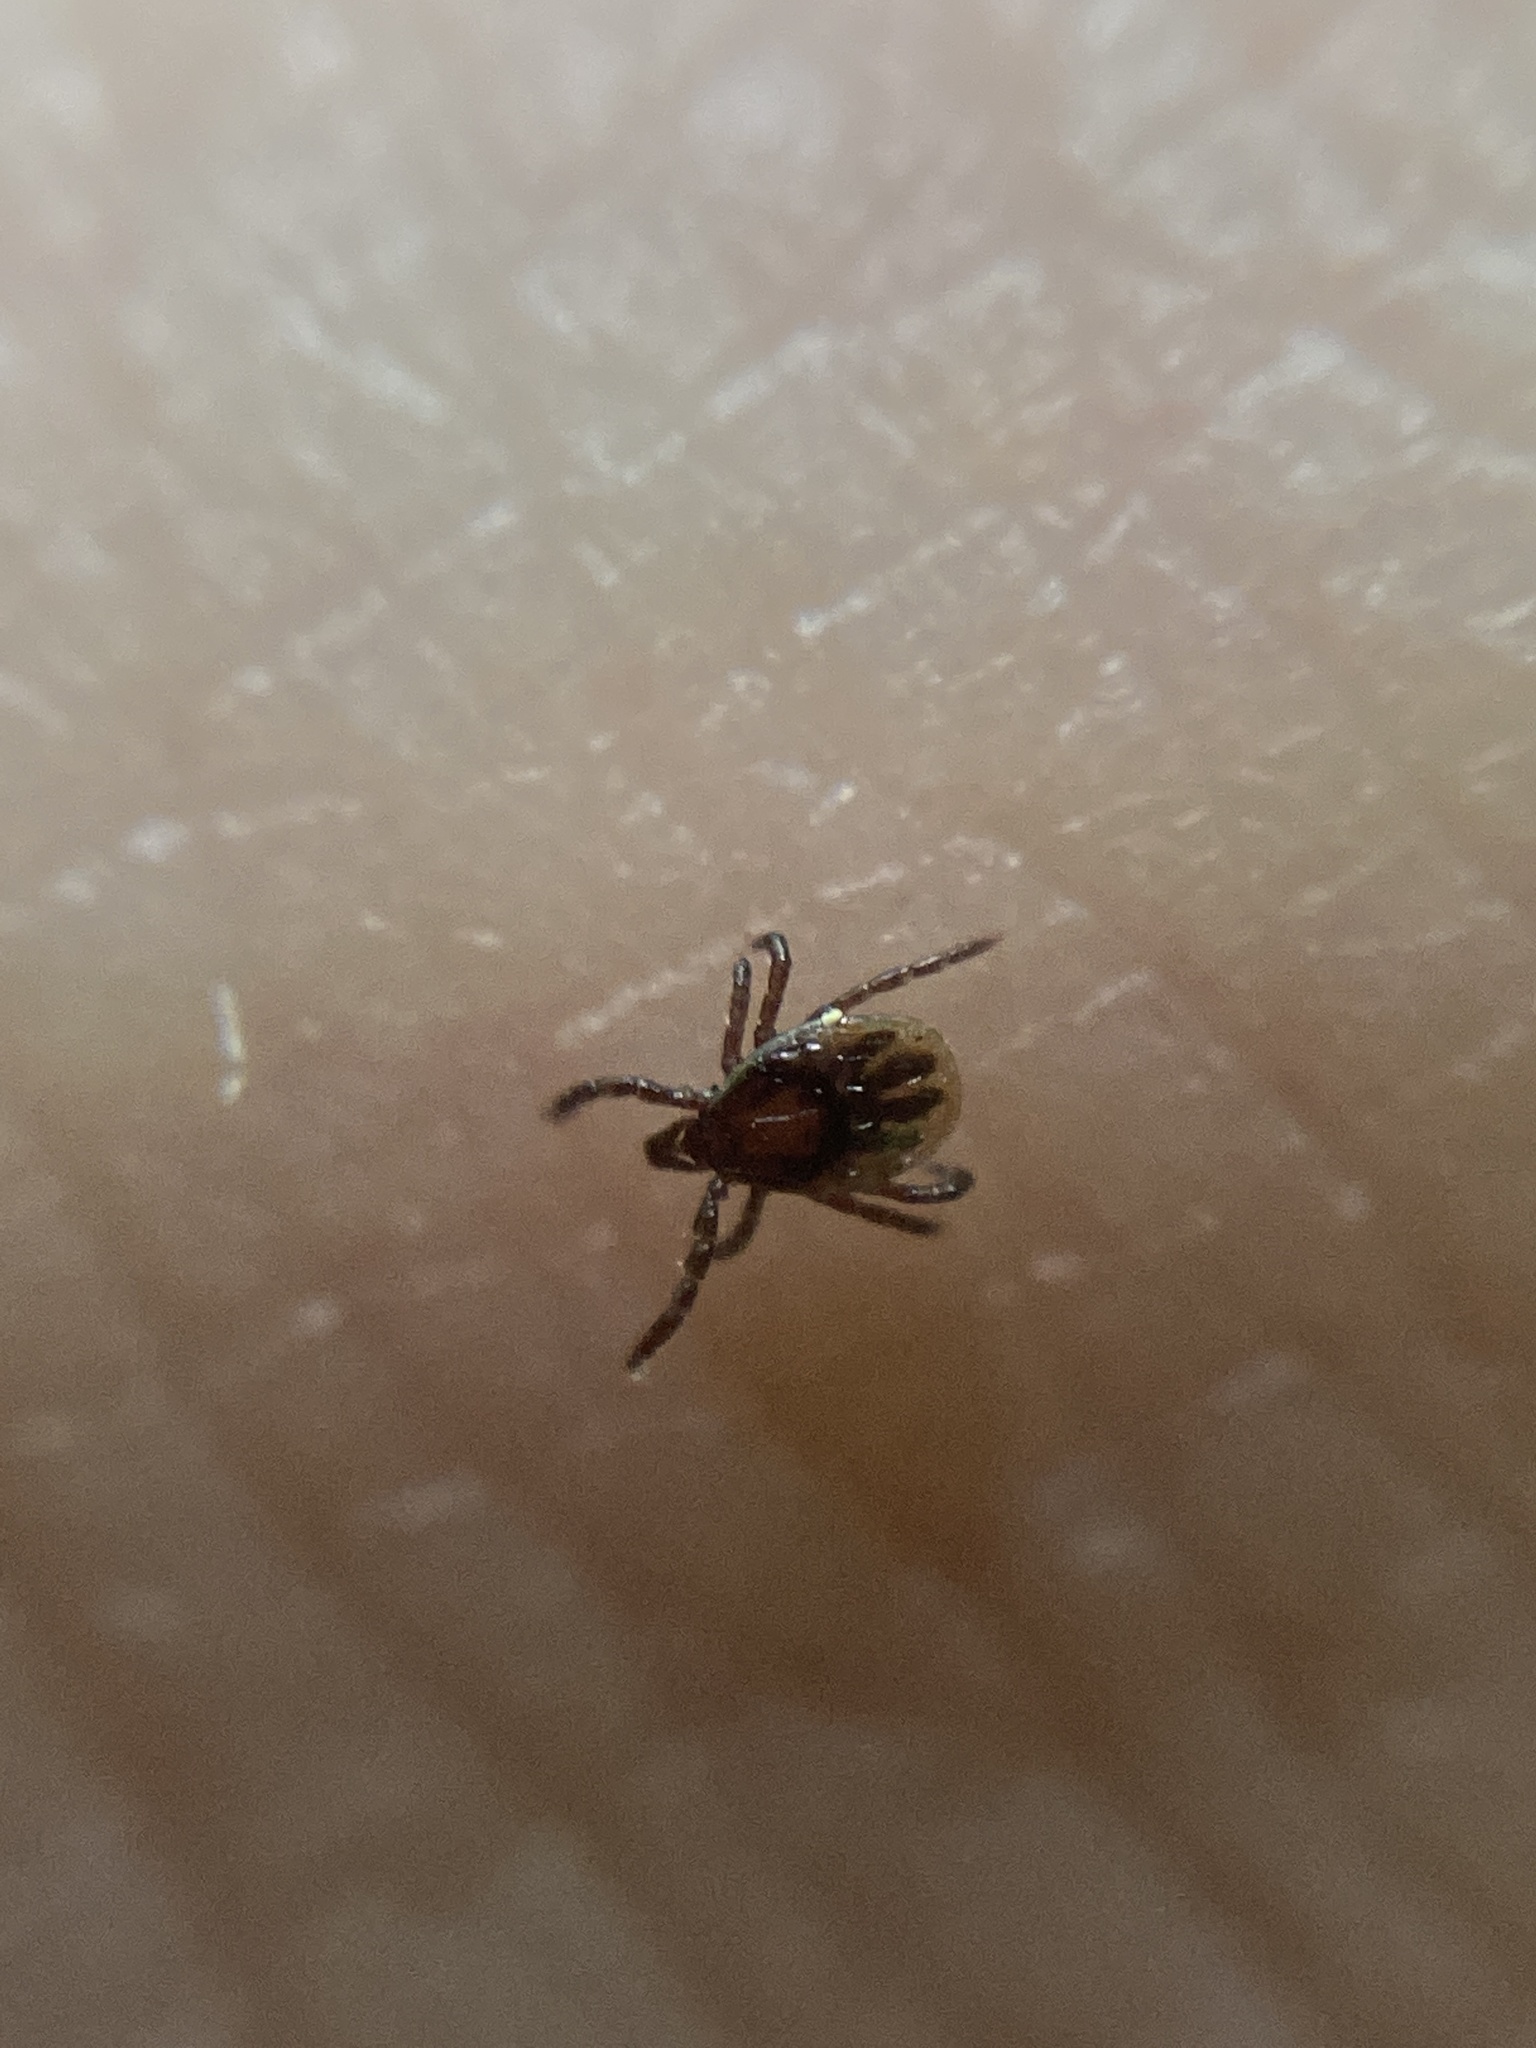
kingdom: Animalia
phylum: Arthropoda
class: Arachnida
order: Ixodida
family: Ixodidae
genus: Ixodes
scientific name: Ixodes ricinus
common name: Castor bean tick
